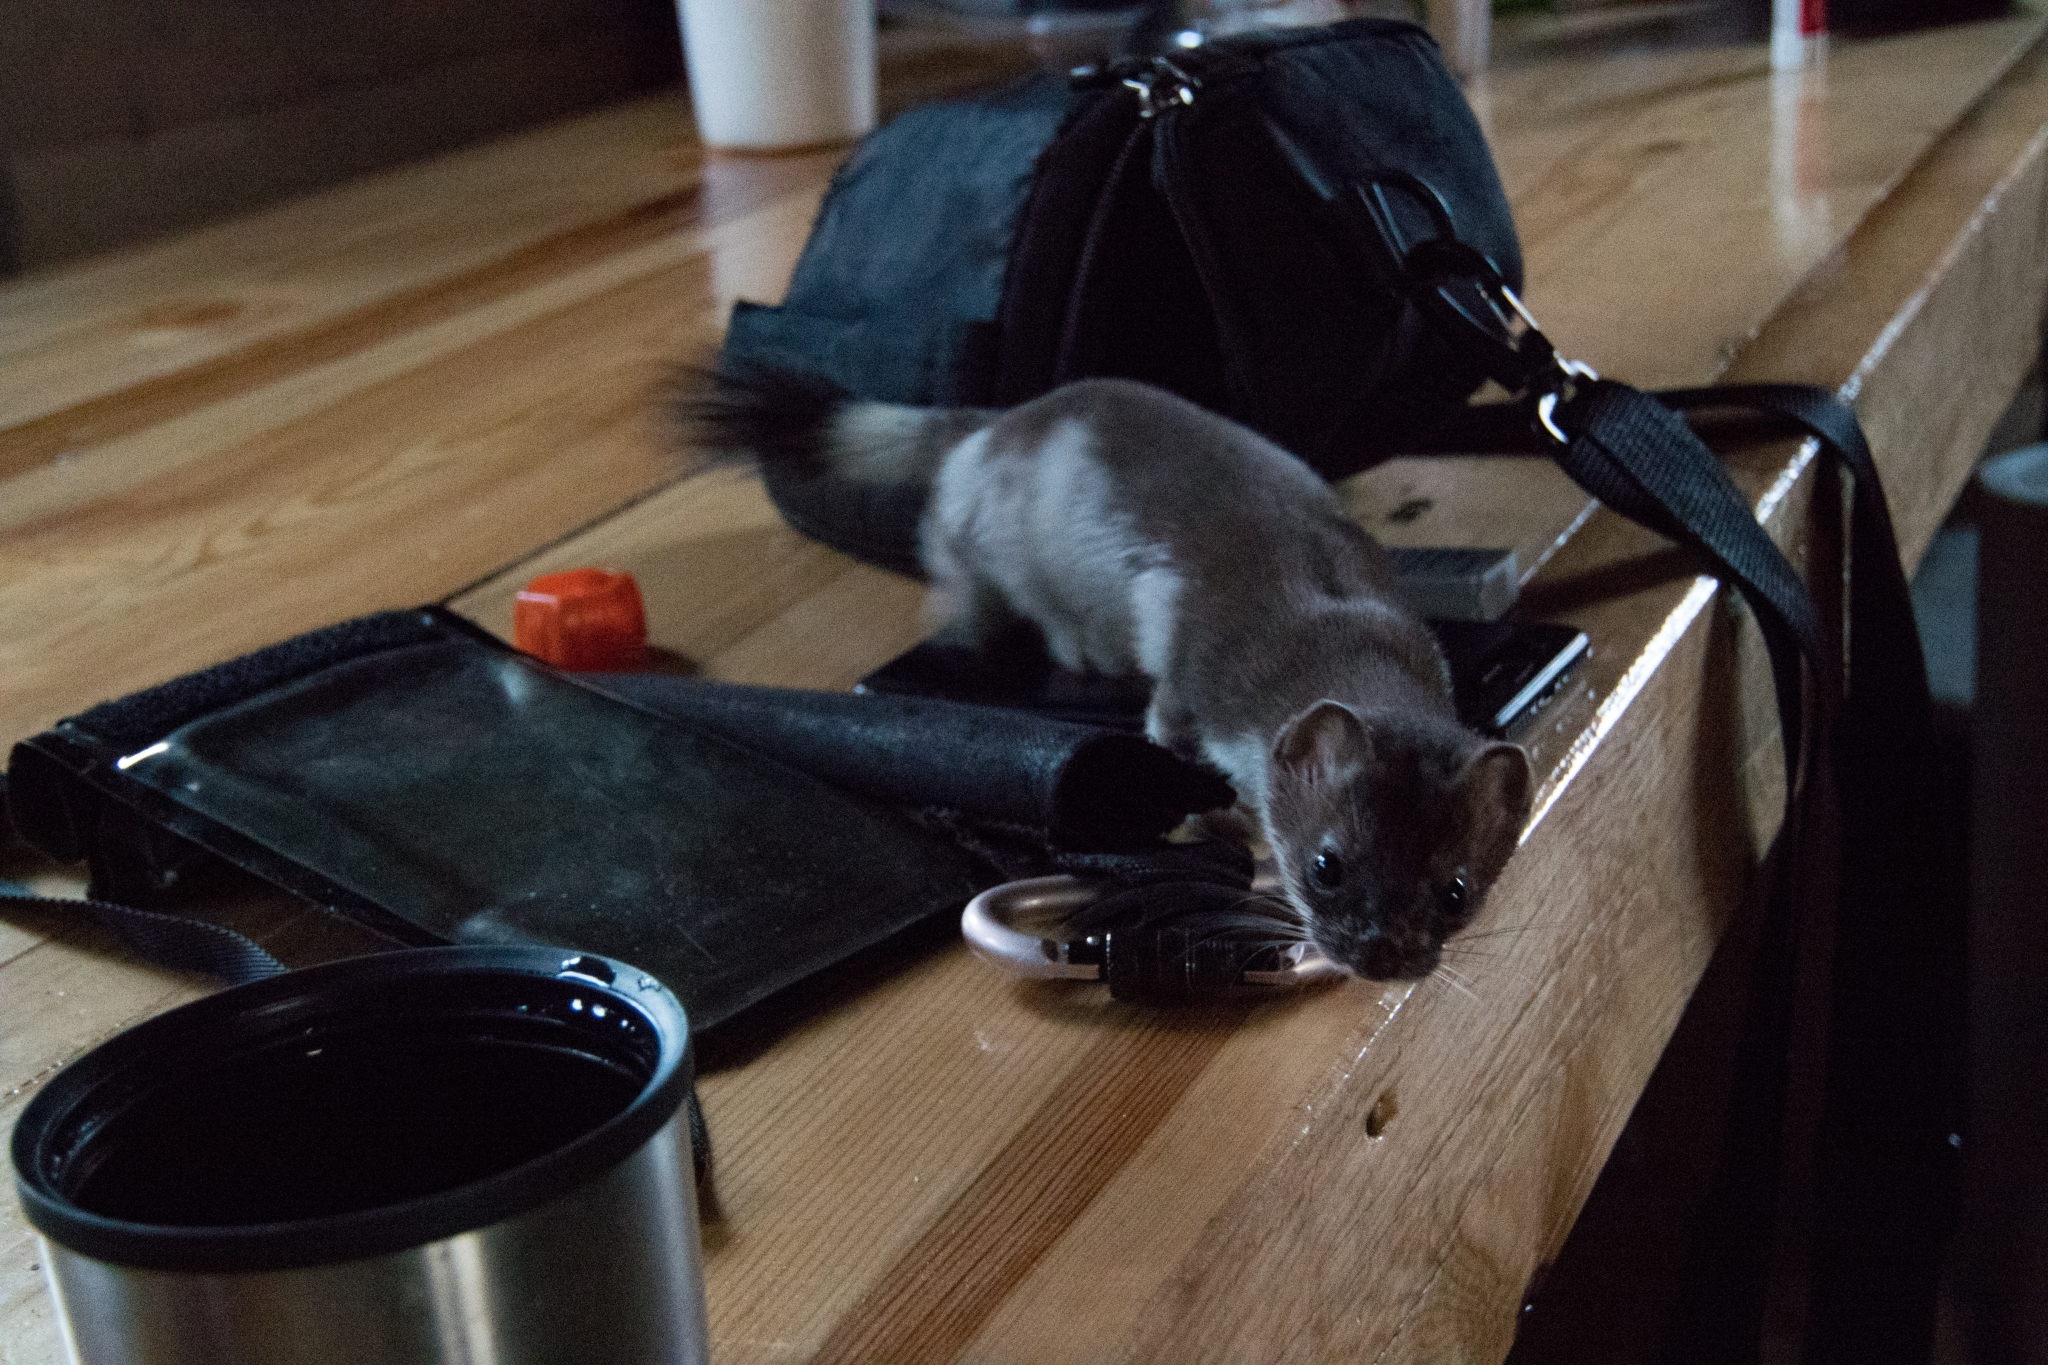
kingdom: Animalia
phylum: Chordata
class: Mammalia
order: Carnivora
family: Mustelidae
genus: Mustela
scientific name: Mustela erminea
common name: Stoat
